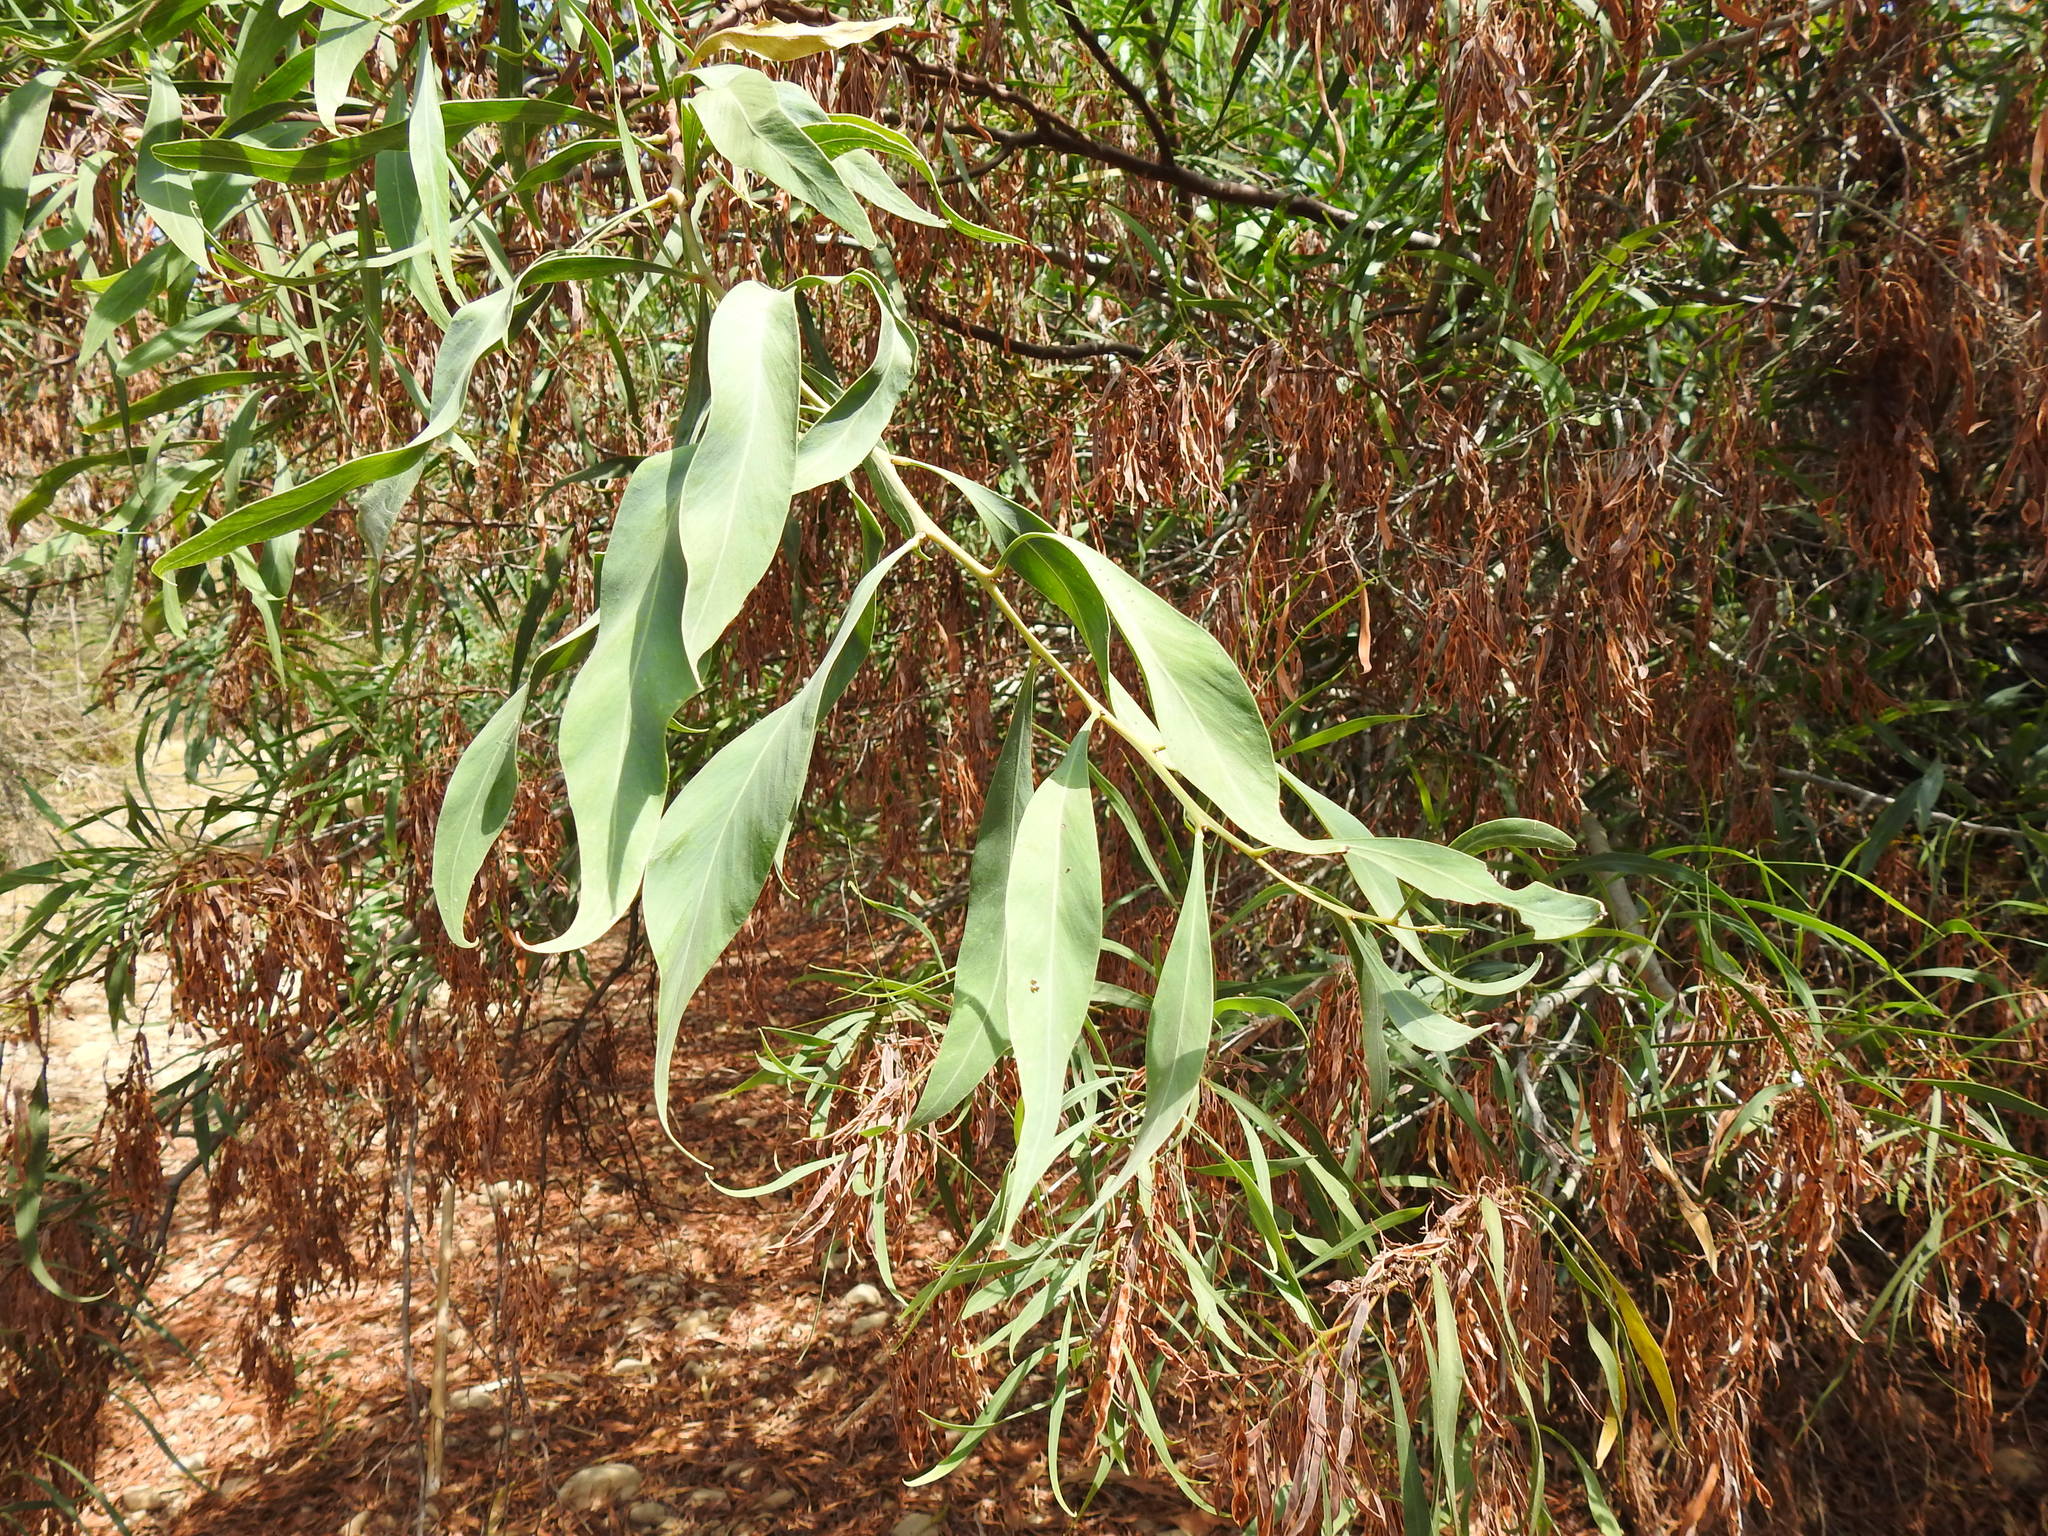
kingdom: Plantae
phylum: Tracheophyta
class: Magnoliopsida
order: Fabales
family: Fabaceae
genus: Acacia
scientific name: Acacia saligna
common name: Orange wattle
